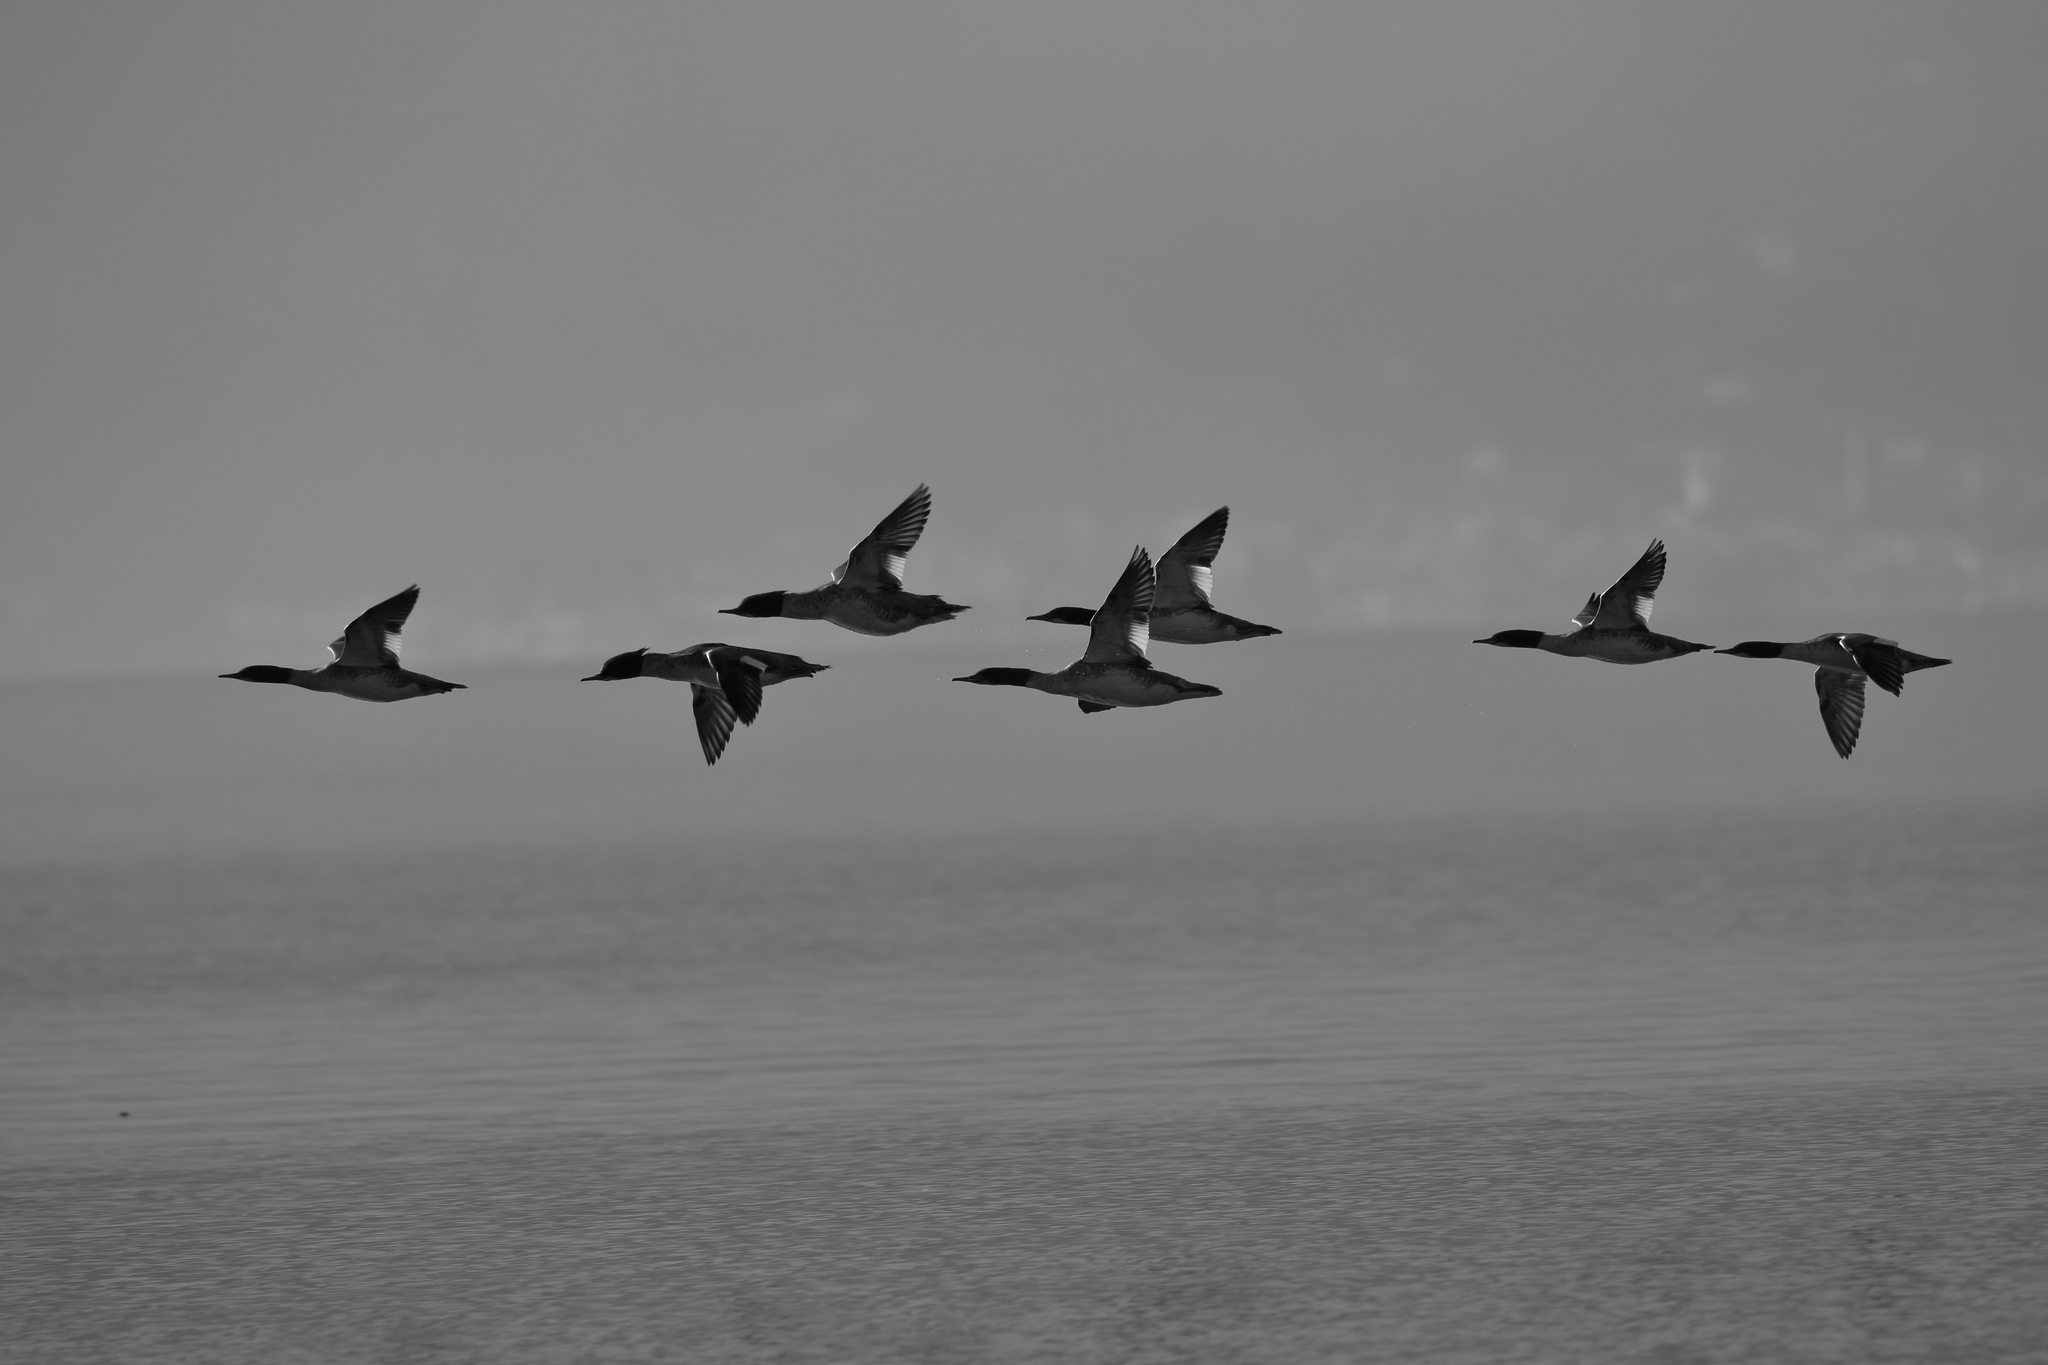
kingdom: Animalia
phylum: Chordata
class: Aves
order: Anseriformes
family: Anatidae
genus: Mergus
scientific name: Mergus merganser
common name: Common merganser
